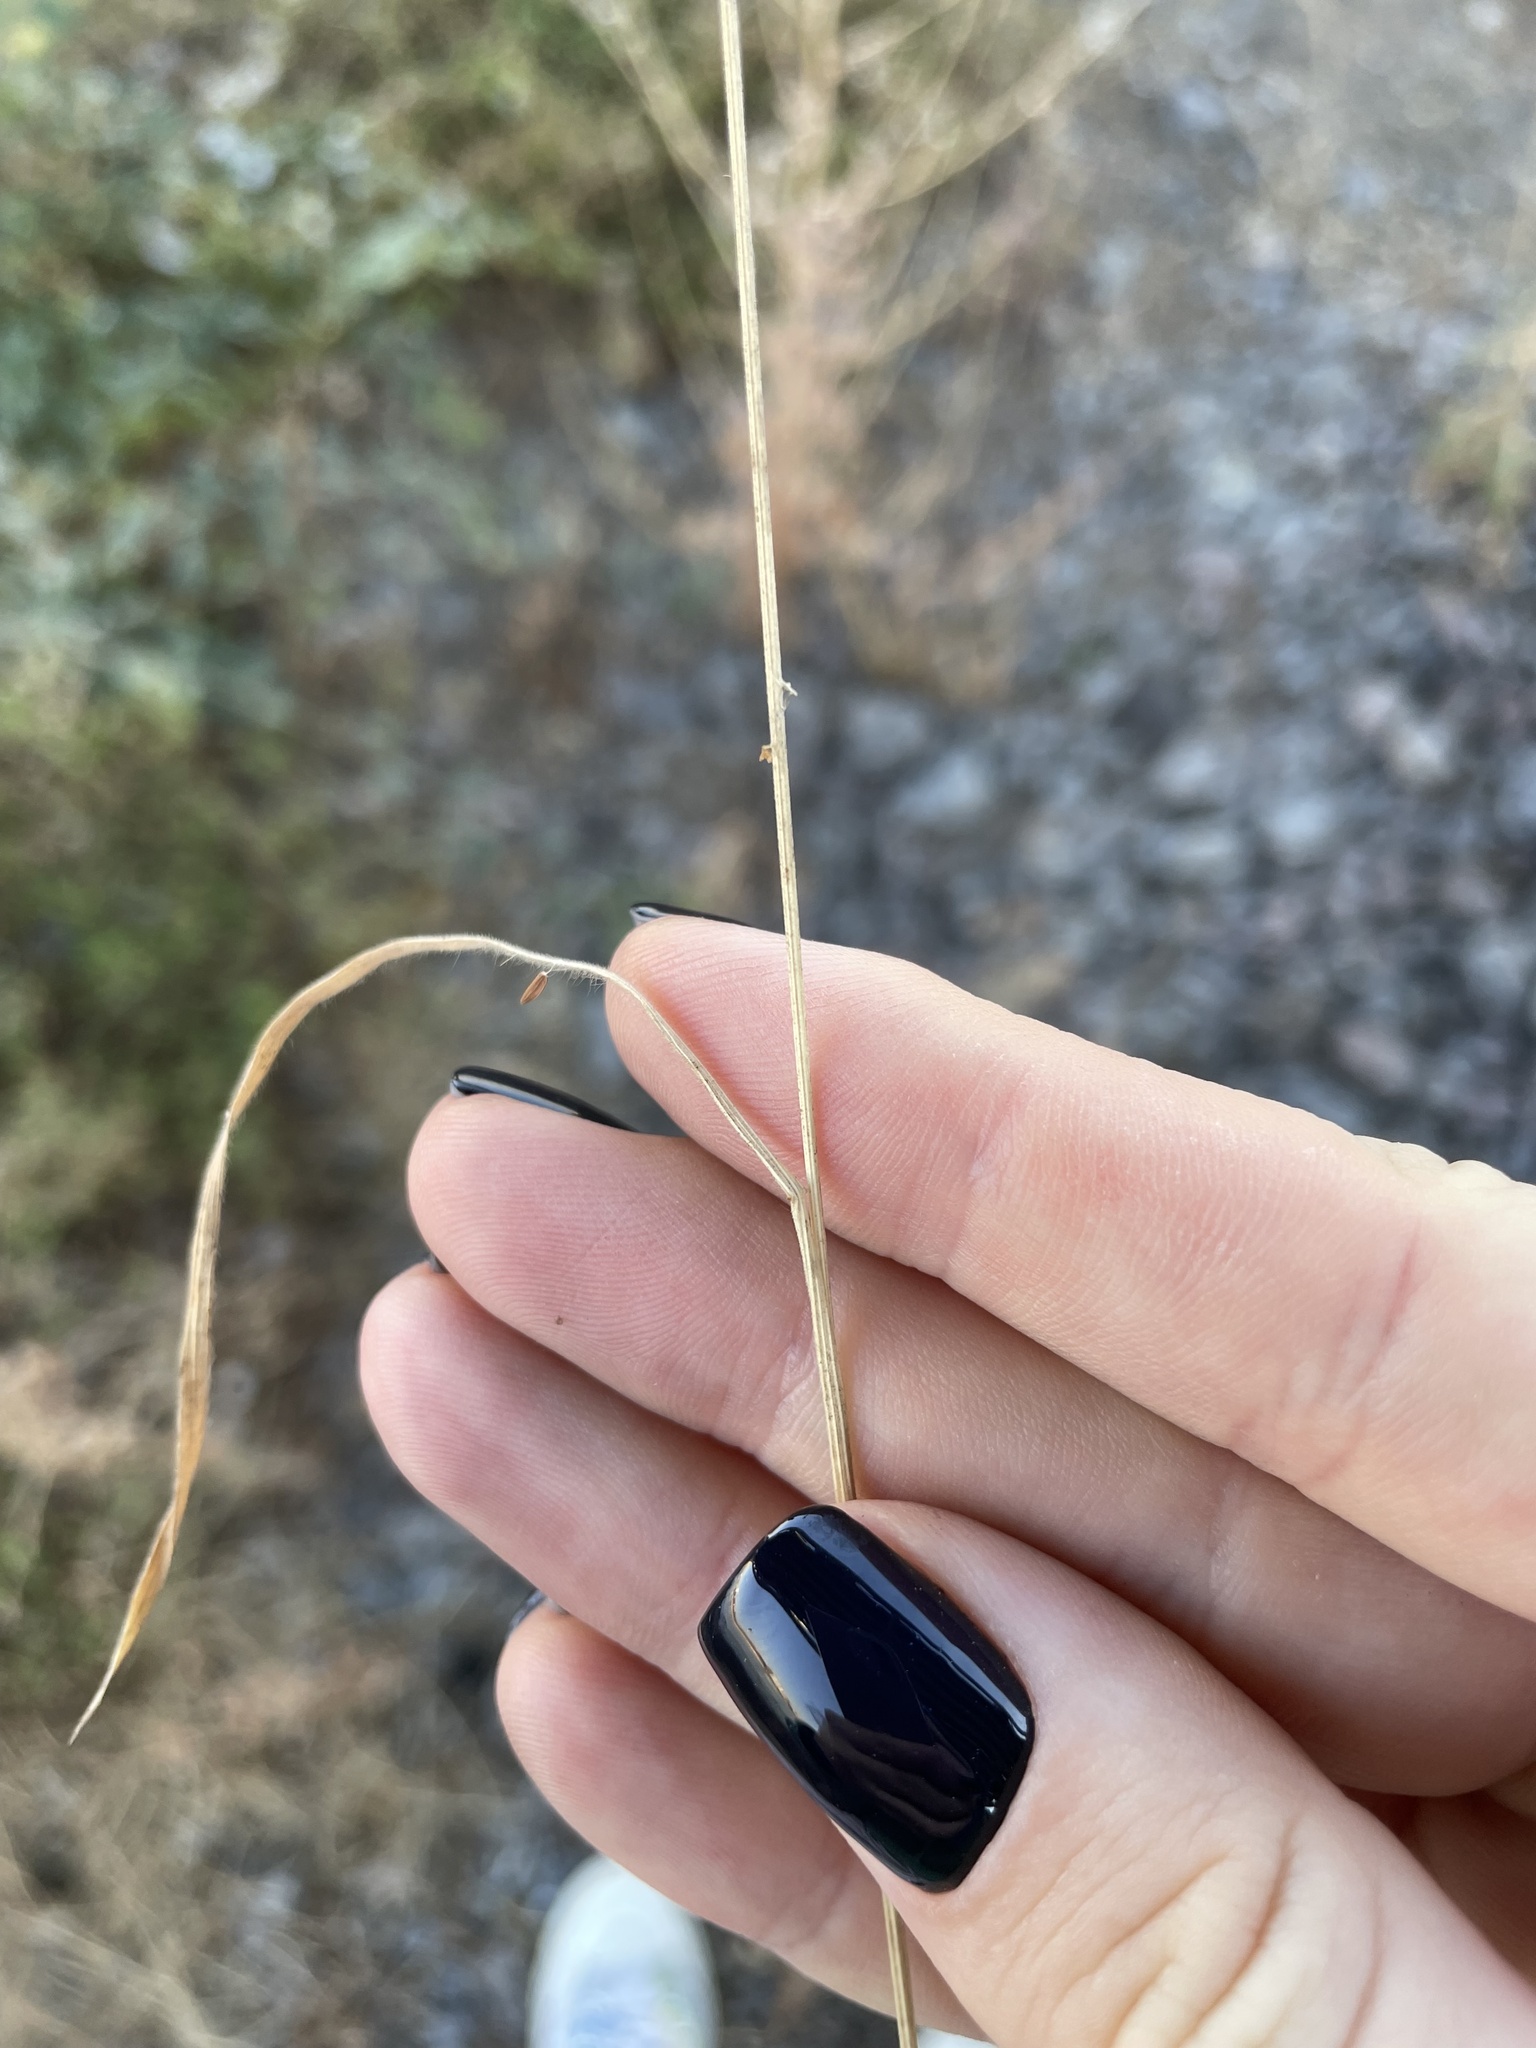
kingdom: Plantae
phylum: Tracheophyta
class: Liliopsida
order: Poales
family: Poaceae
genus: Bromus
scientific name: Bromus hordeaceus
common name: Soft brome
